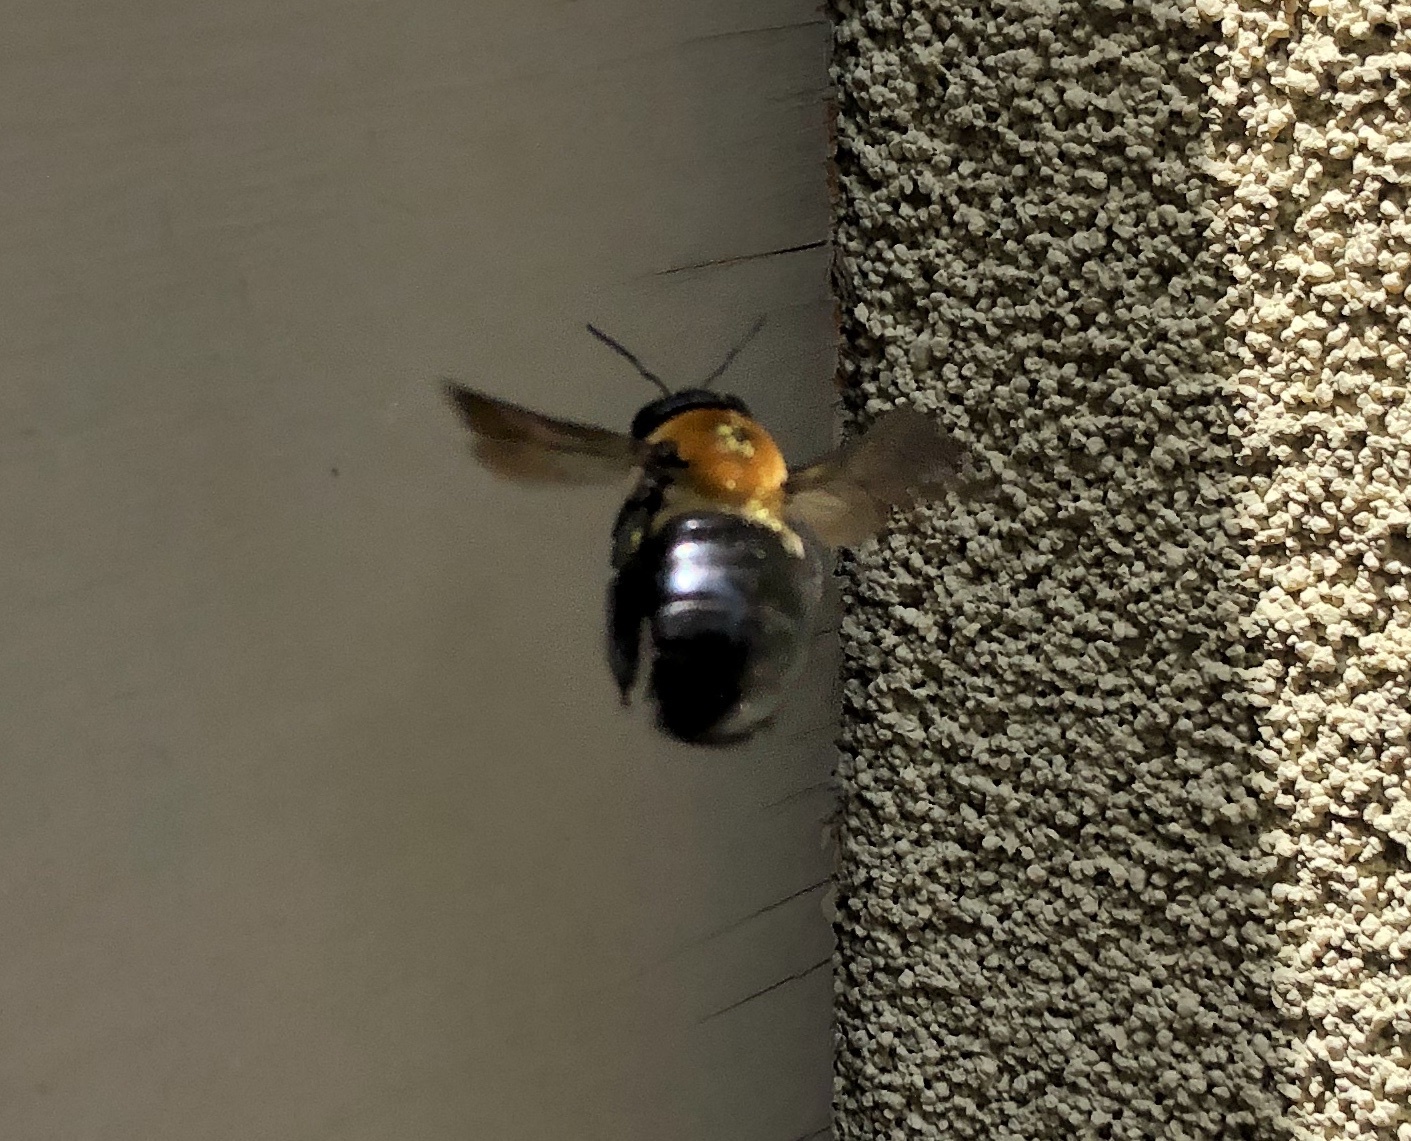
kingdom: Animalia
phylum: Arthropoda
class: Insecta
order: Hymenoptera
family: Apidae
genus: Xylocopa
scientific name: Xylocopa virginica
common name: Carpenter bee
